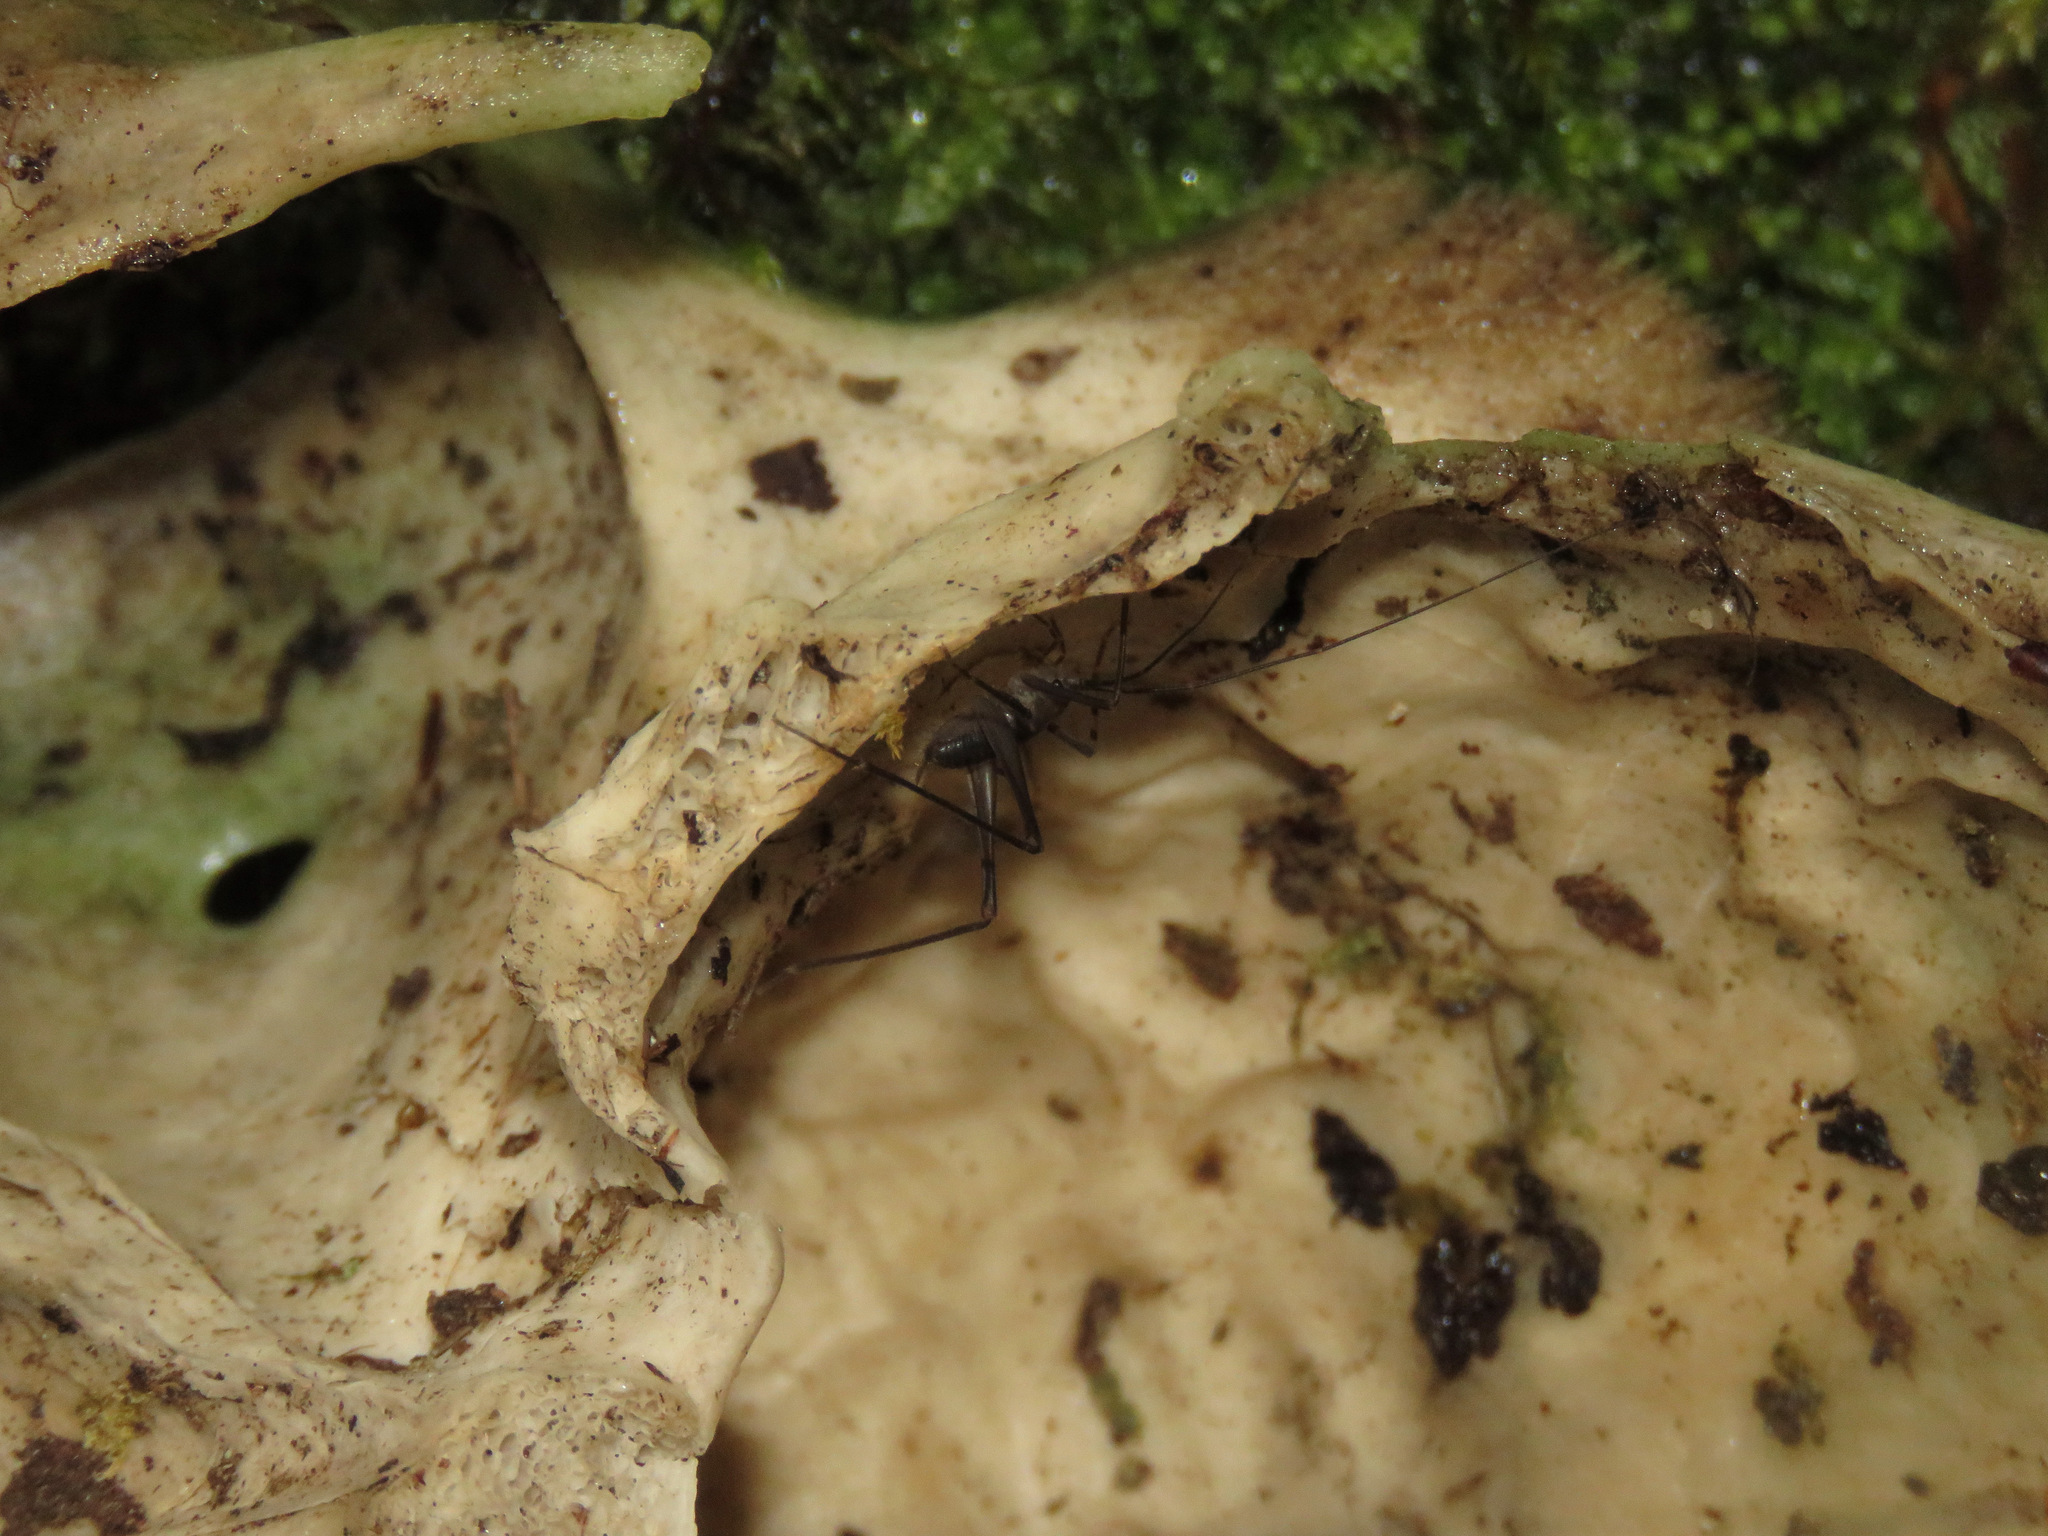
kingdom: Animalia
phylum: Arthropoda
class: Insecta
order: Orthoptera
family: Rhaphidophoridae
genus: Tropidischia
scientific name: Tropidischia xanthostoma
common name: Square-legged camel cricket
